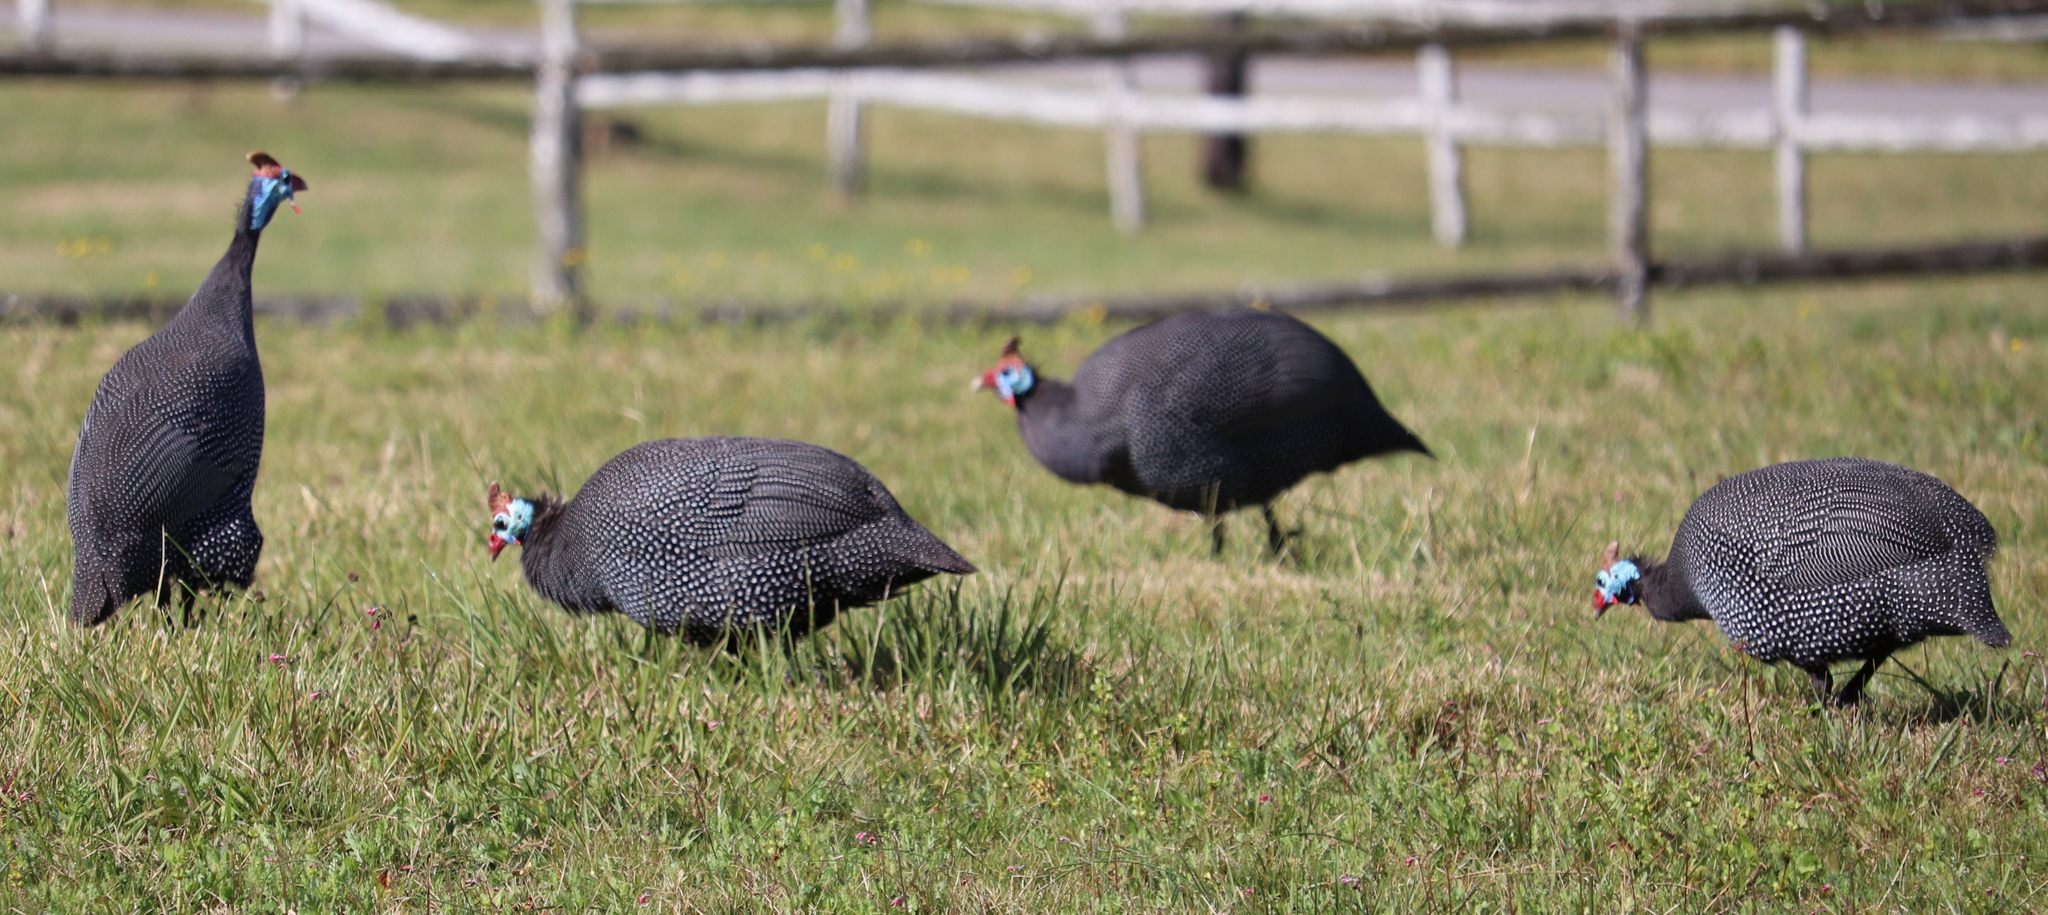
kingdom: Animalia
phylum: Chordata
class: Aves
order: Galliformes
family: Numididae
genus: Numida
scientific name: Numida meleagris
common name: Helmeted guineafowl
